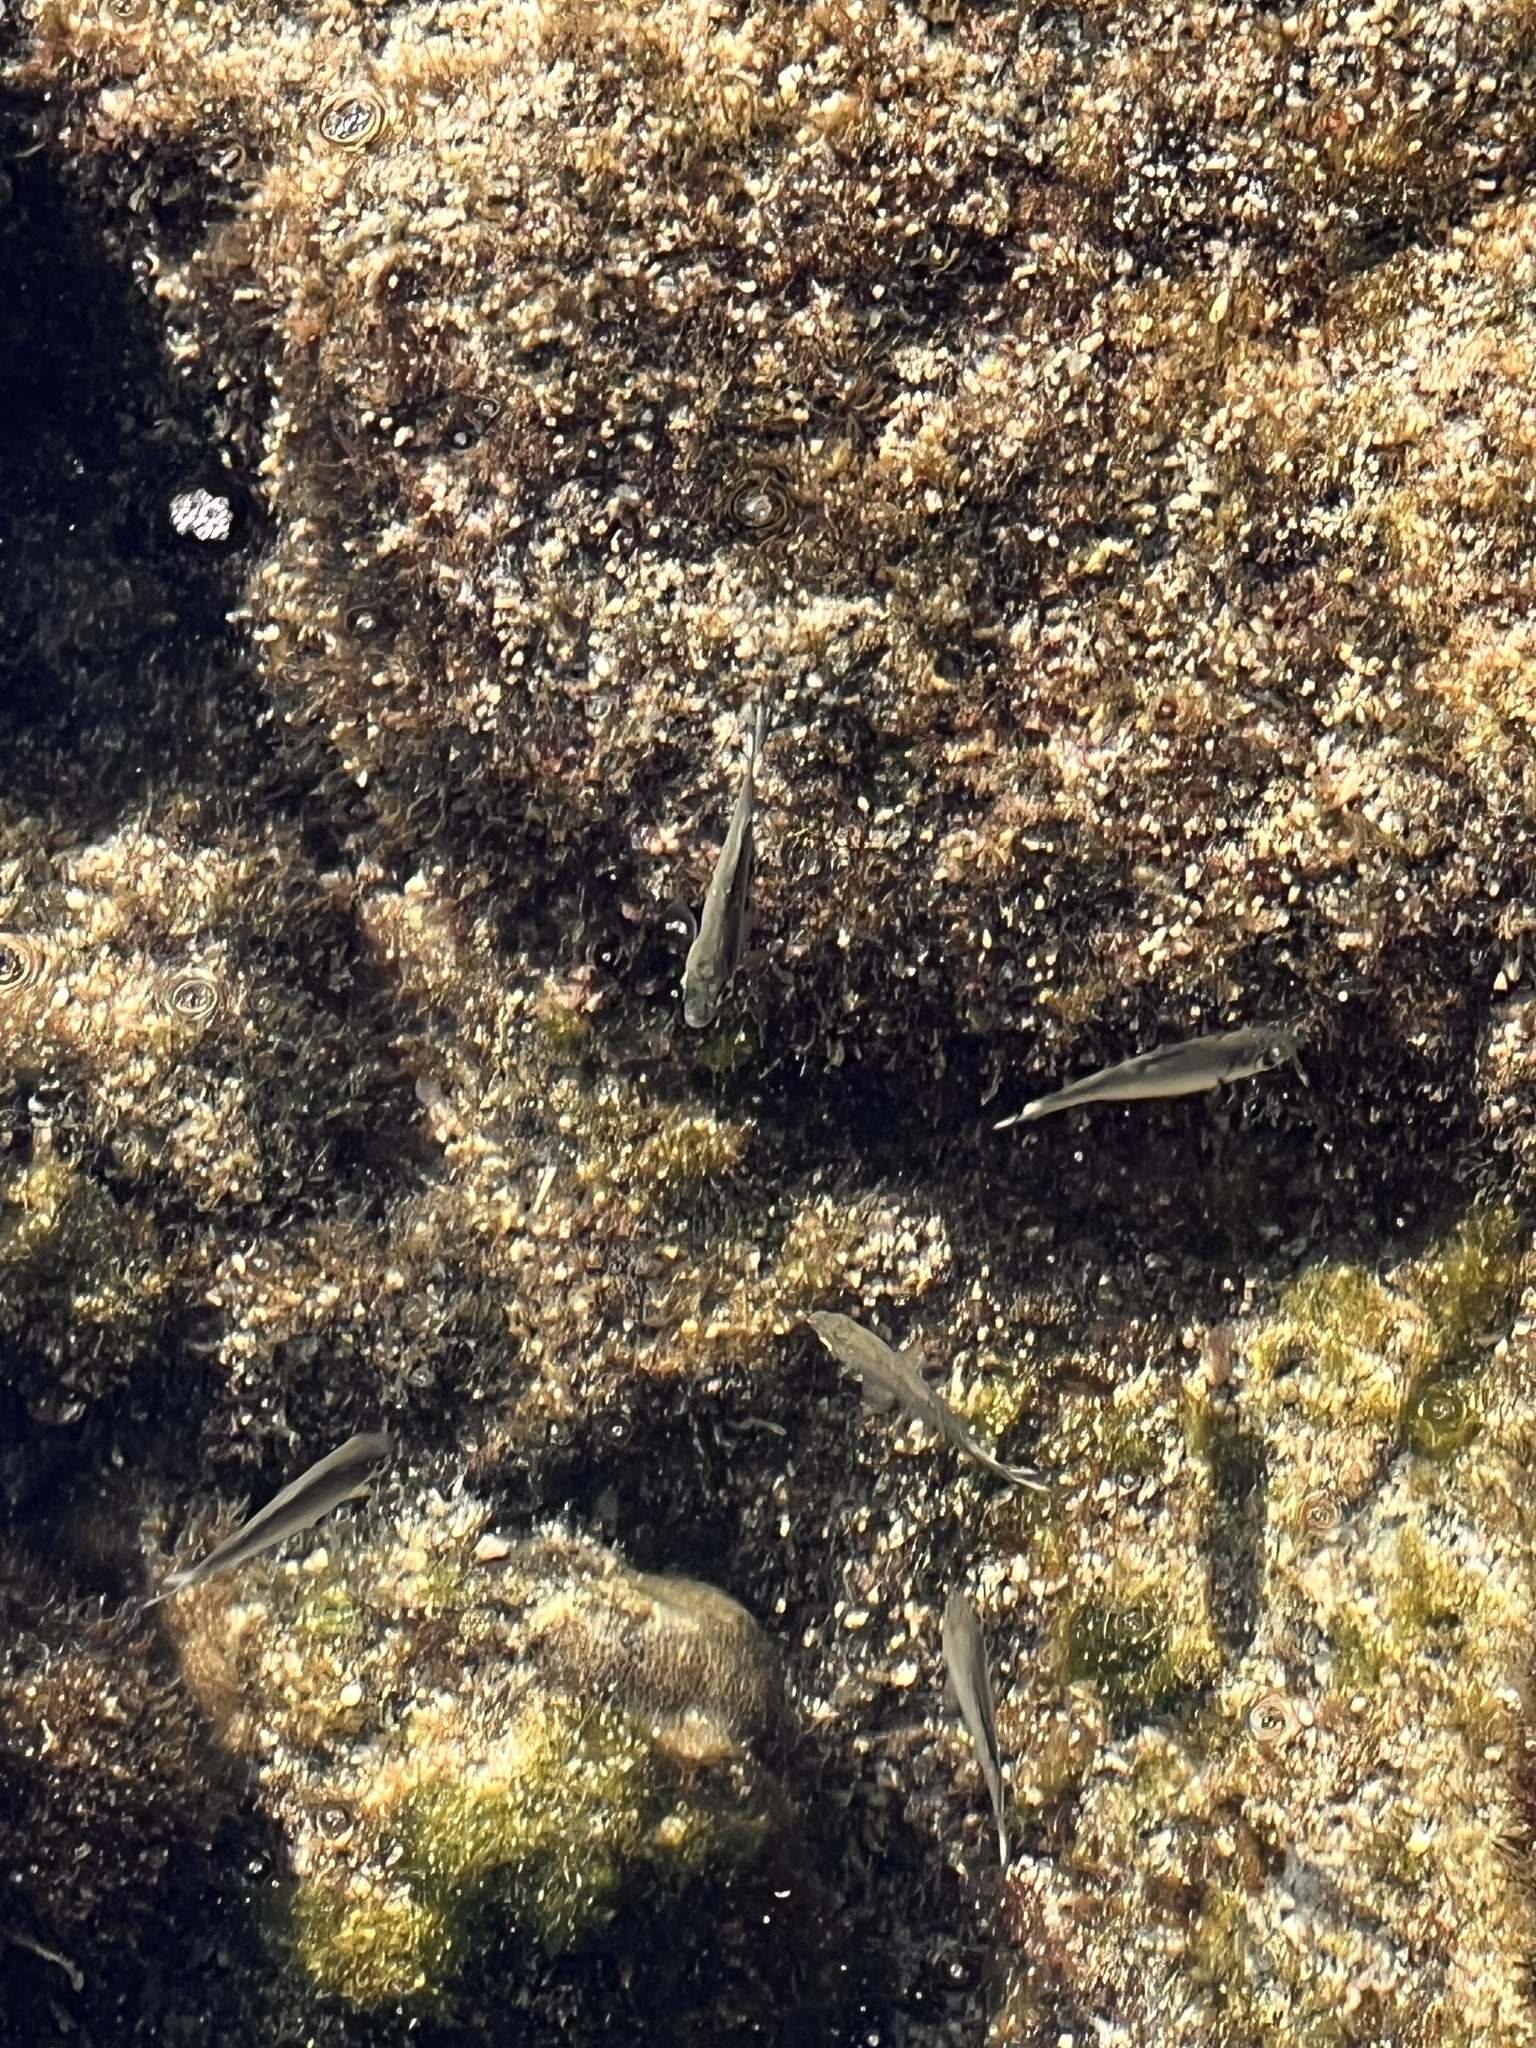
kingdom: Animalia
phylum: Chordata
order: Perciformes
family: Kuhliidae
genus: Kuhlia
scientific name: Kuhlia xenura
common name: Hawaiian flagtail
